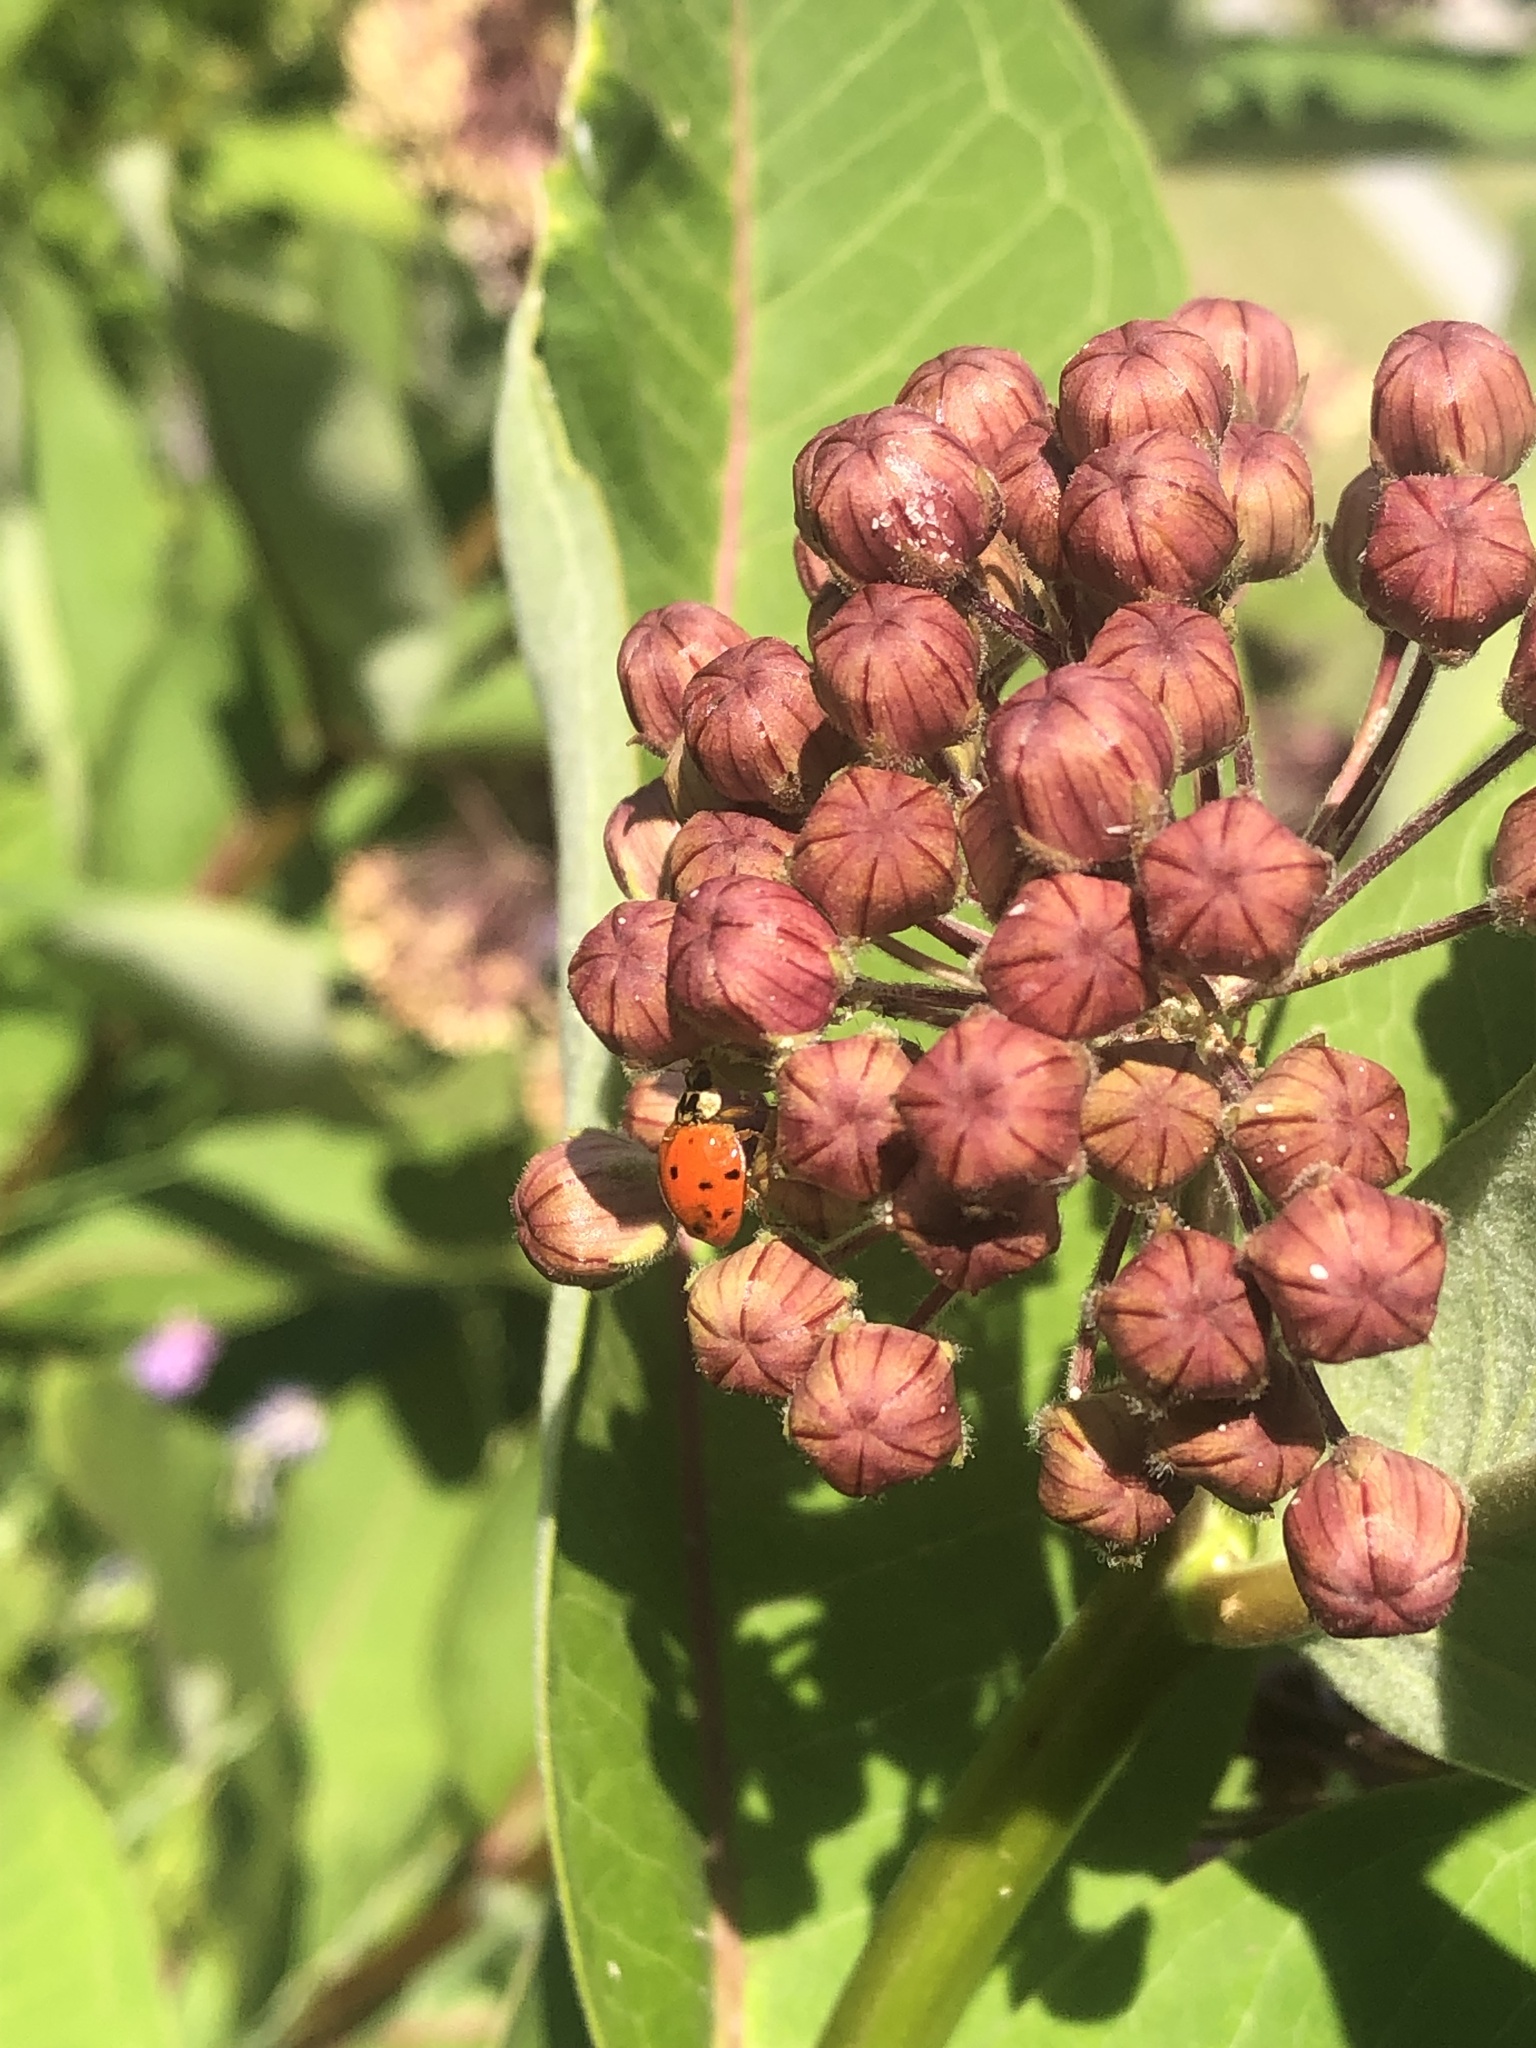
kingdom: Animalia
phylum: Arthropoda
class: Insecta
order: Coleoptera
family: Coccinellidae
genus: Harmonia
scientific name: Harmonia axyridis
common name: Harlequin ladybird
